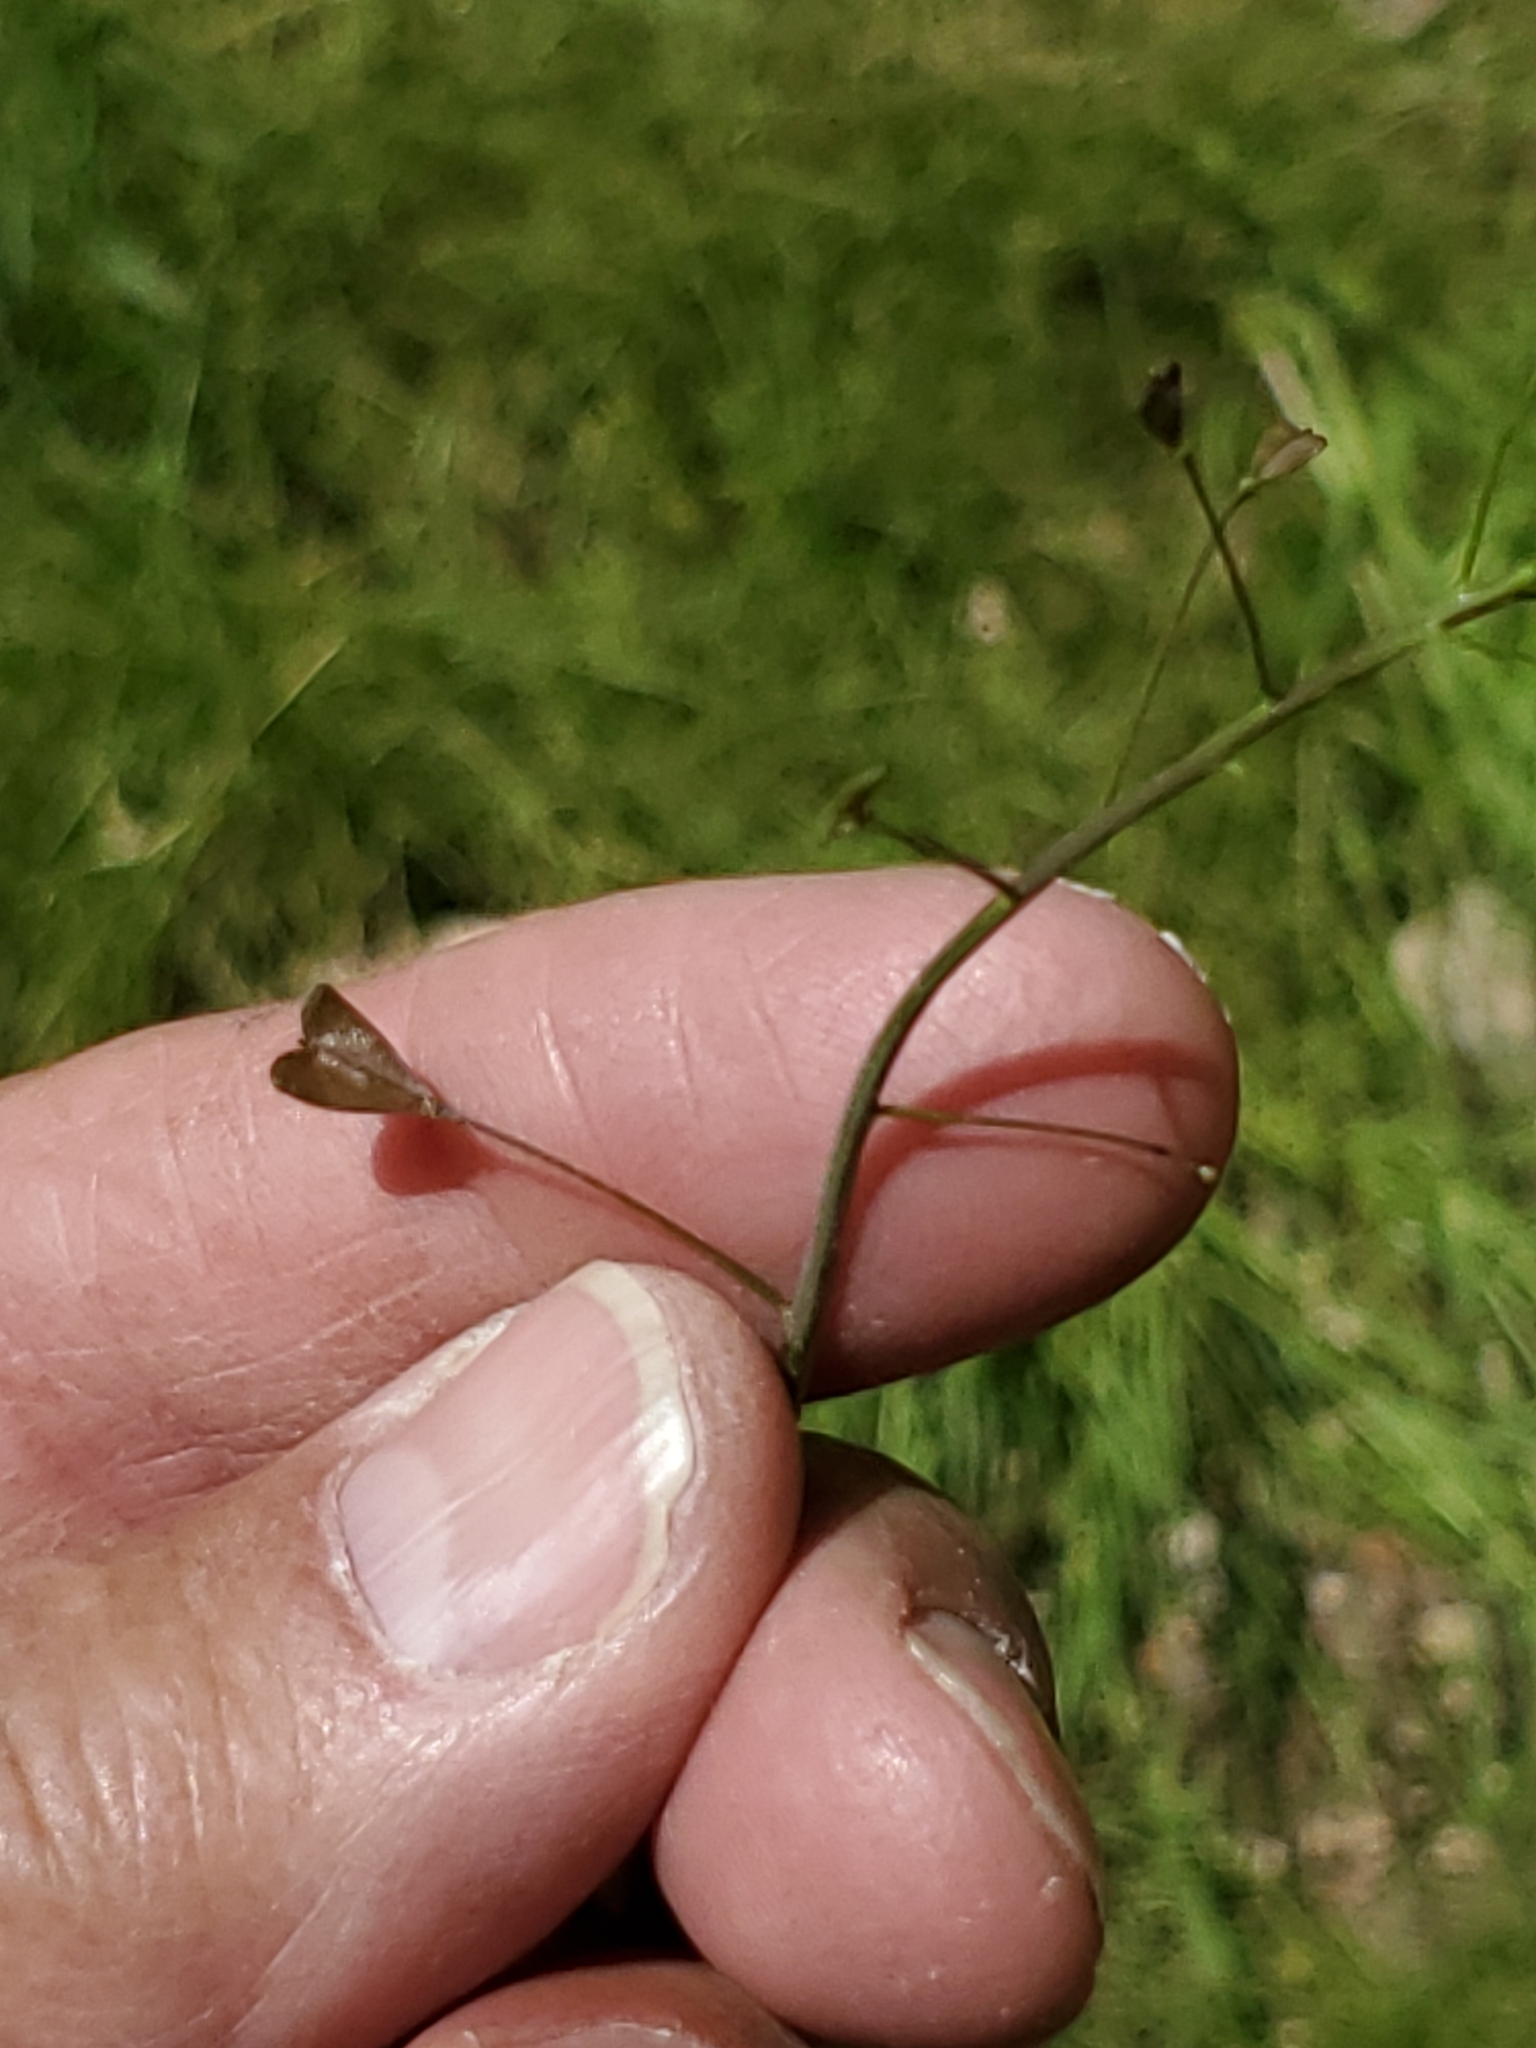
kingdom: Plantae
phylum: Tracheophyta
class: Magnoliopsida
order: Brassicales
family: Brassicaceae
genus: Capsella
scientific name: Capsella bursa-pastoris
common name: Shepherd's purse
